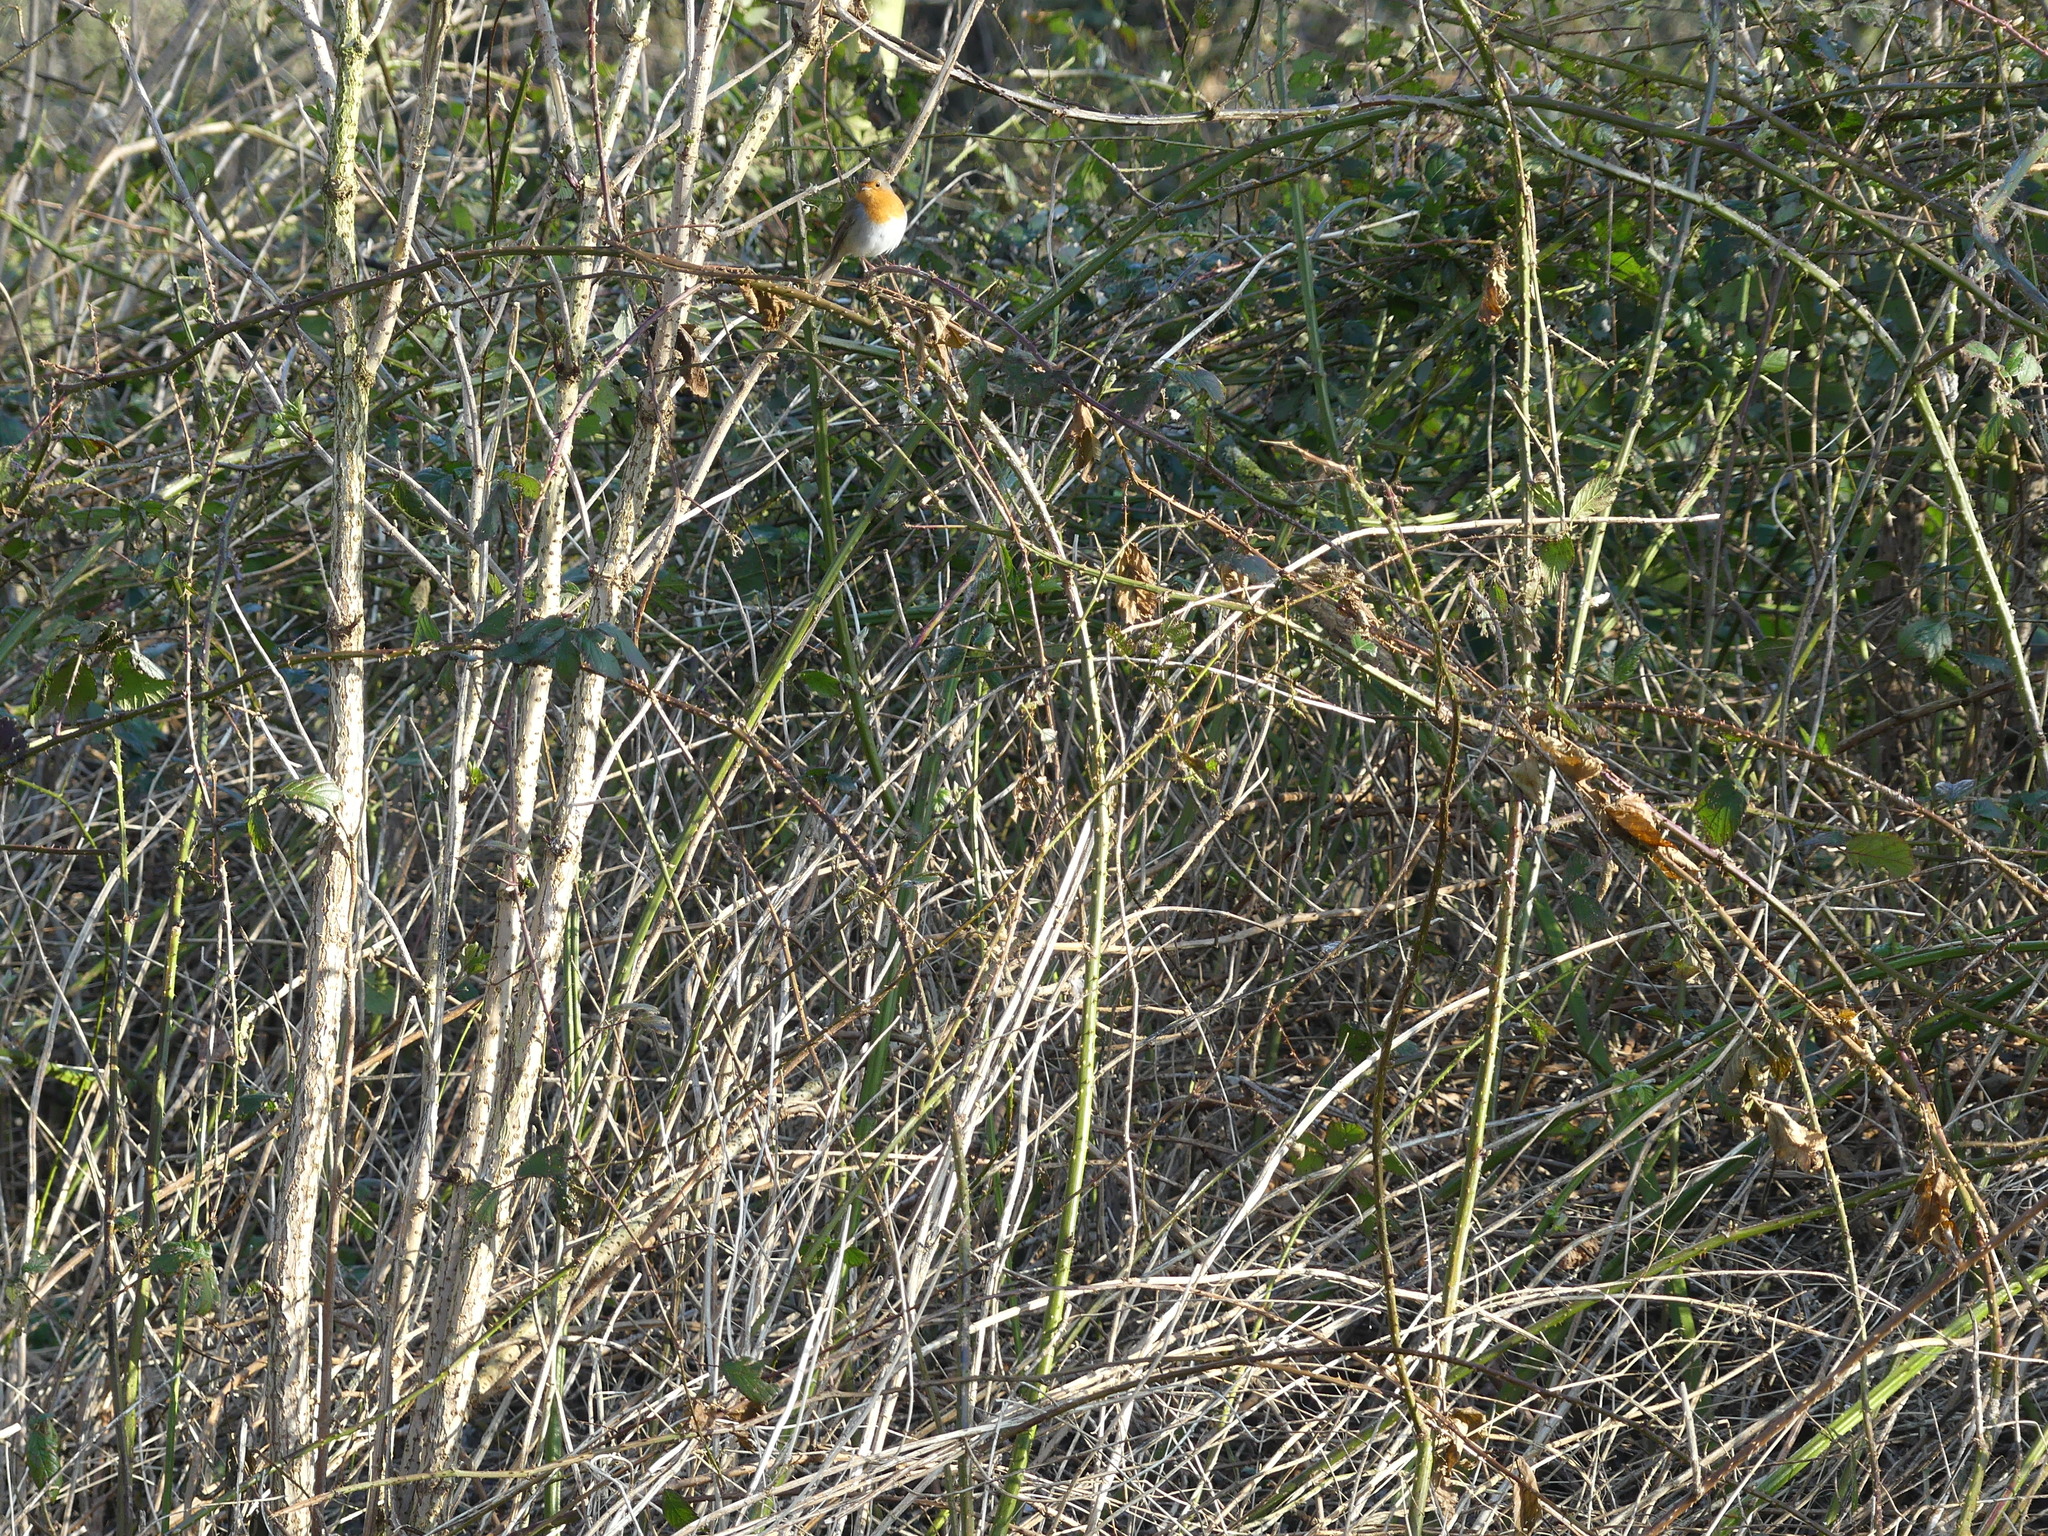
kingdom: Animalia
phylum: Chordata
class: Aves
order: Passeriformes
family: Muscicapidae
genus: Erithacus
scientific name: Erithacus rubecula
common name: European robin
